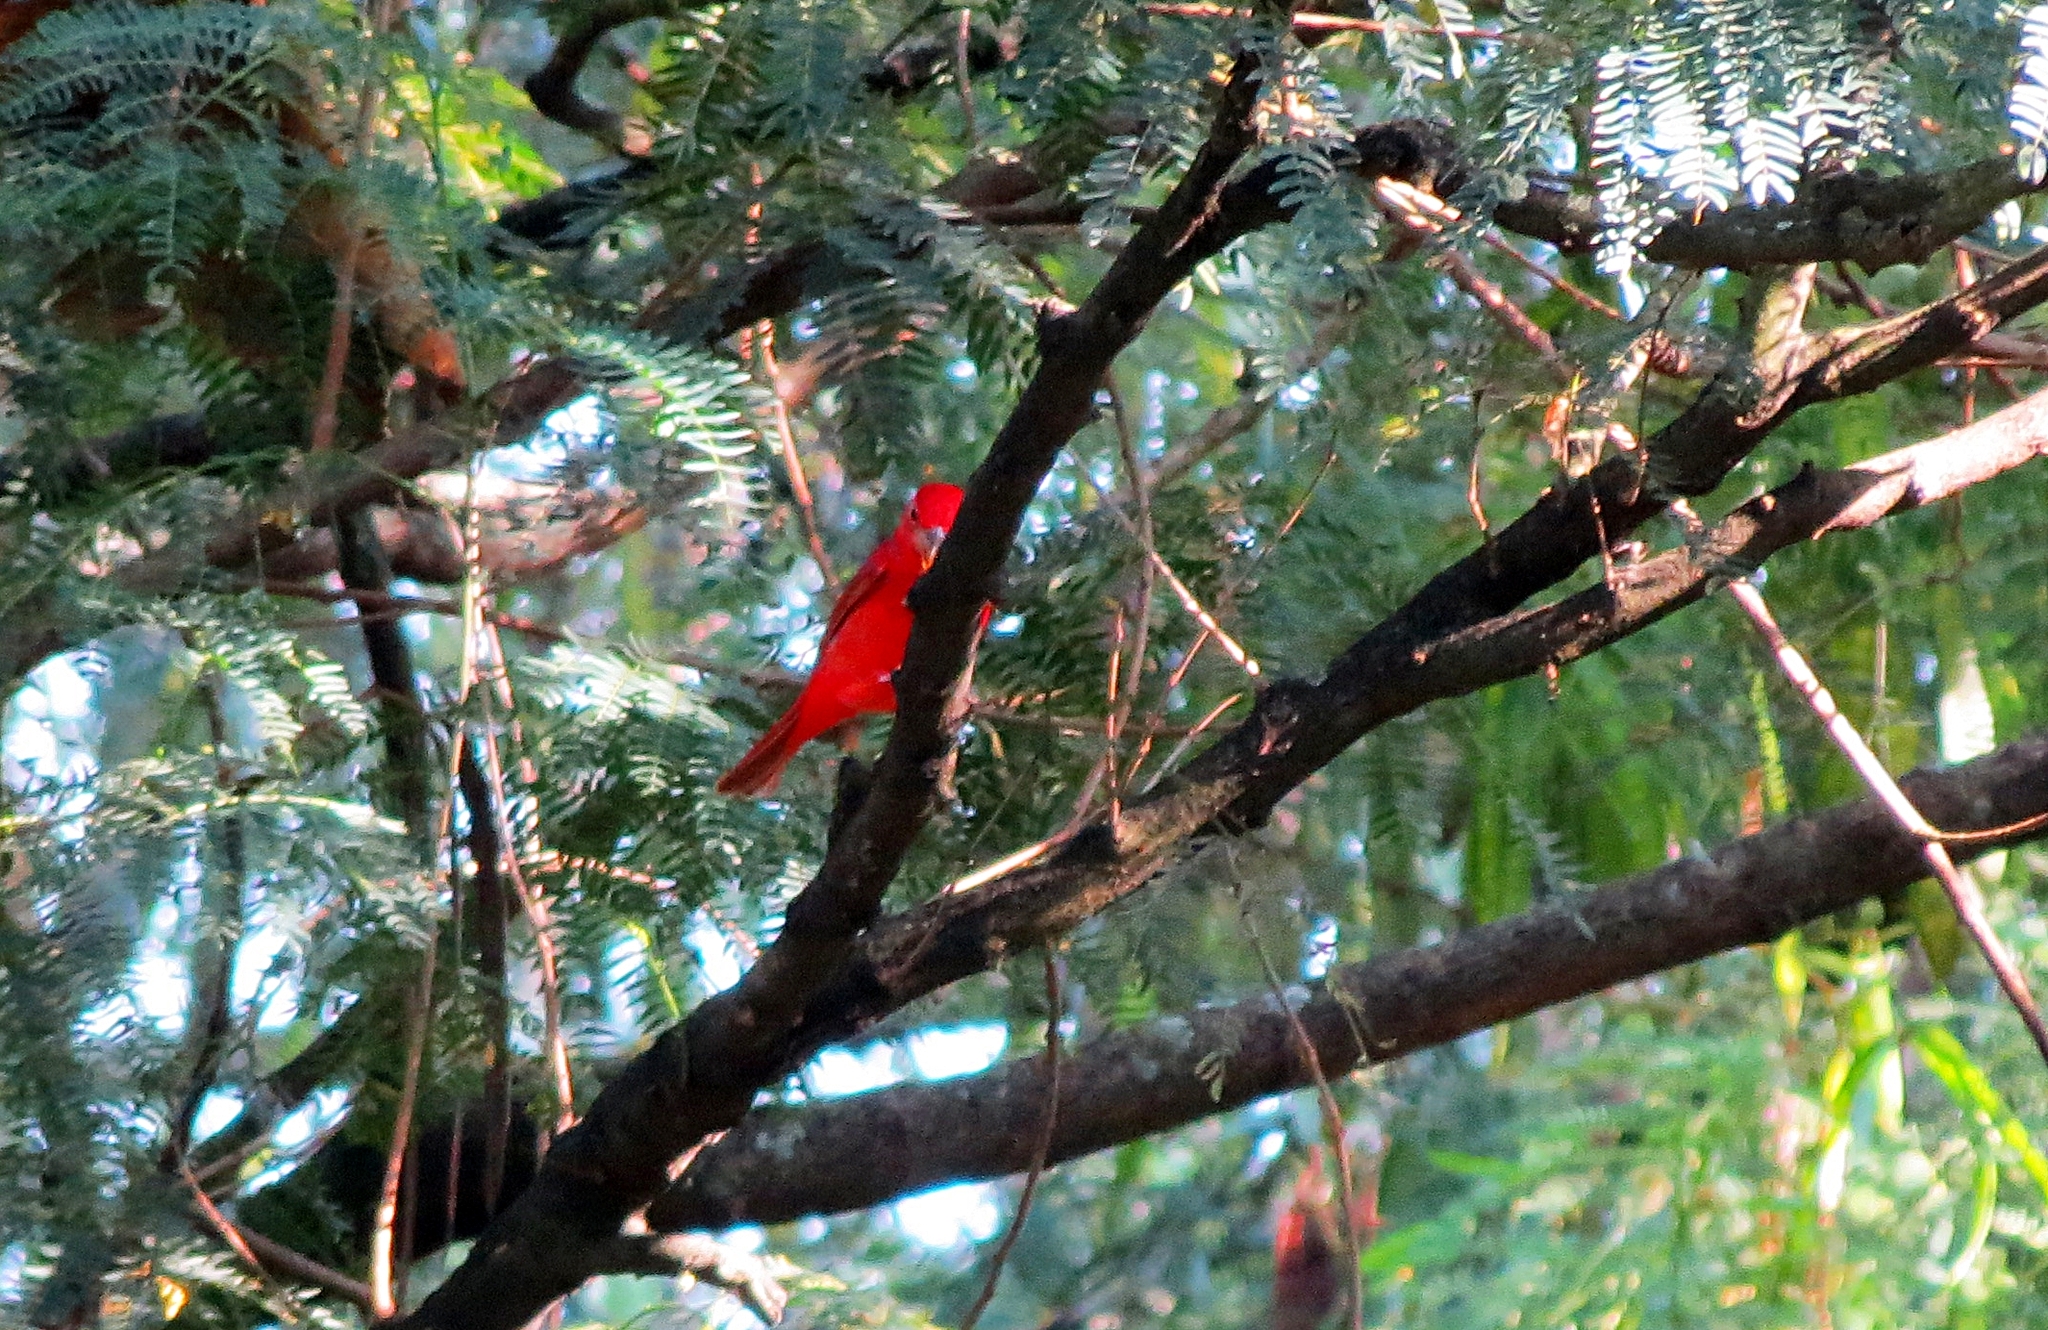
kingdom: Animalia
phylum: Chordata
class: Aves
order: Passeriformes
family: Cardinalidae
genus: Piranga
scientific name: Piranga rubra
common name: Summer tanager
